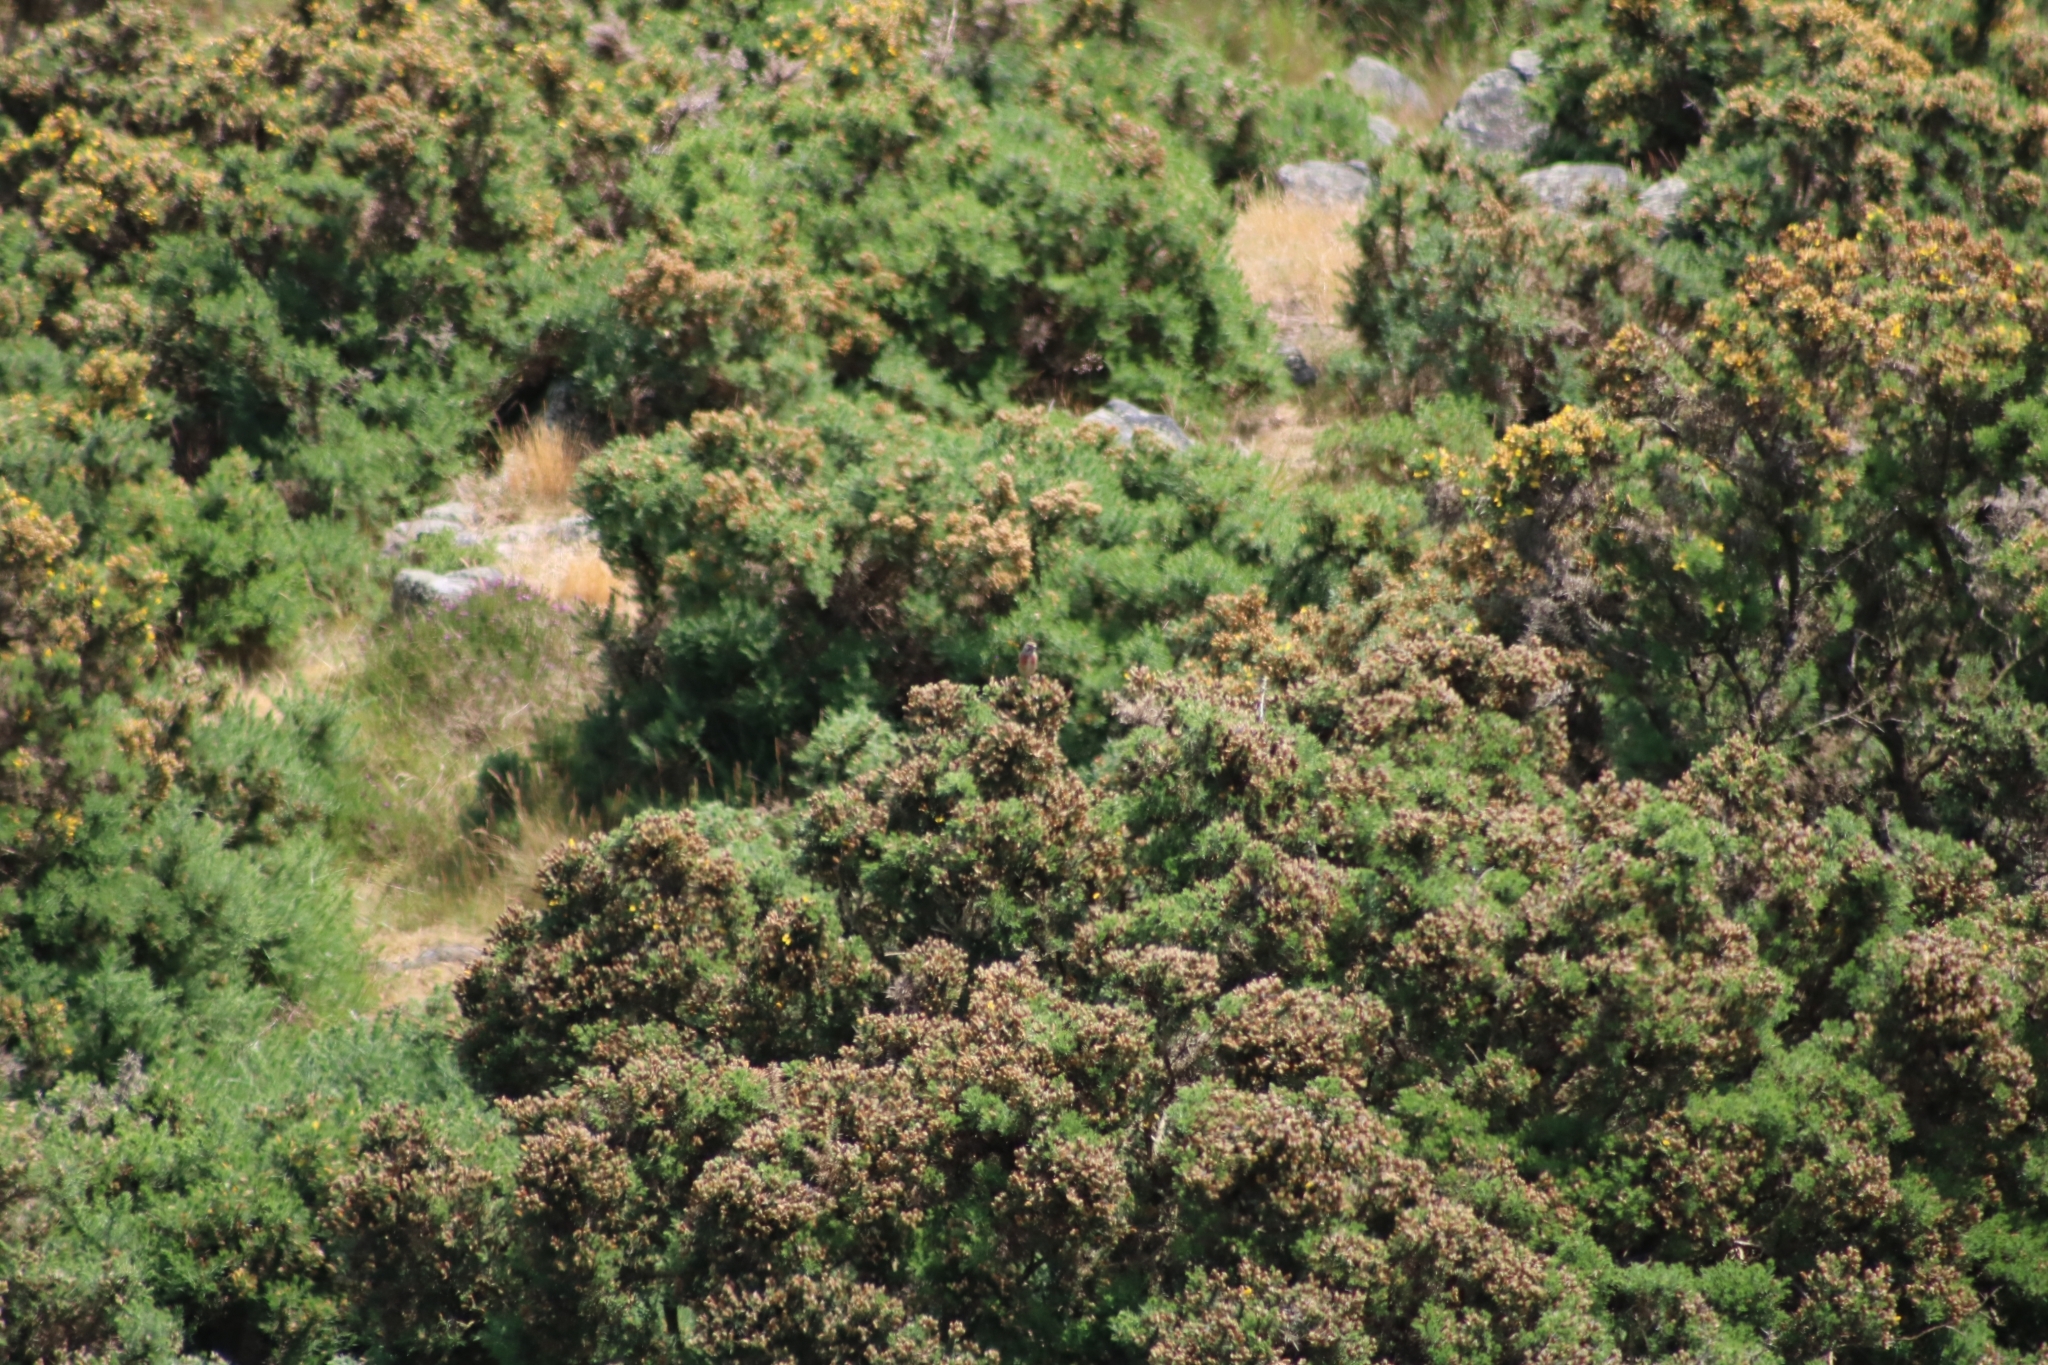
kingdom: Animalia
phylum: Chordata
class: Aves
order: Passeriformes
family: Fringillidae
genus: Linaria
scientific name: Linaria cannabina
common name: Common linnet
